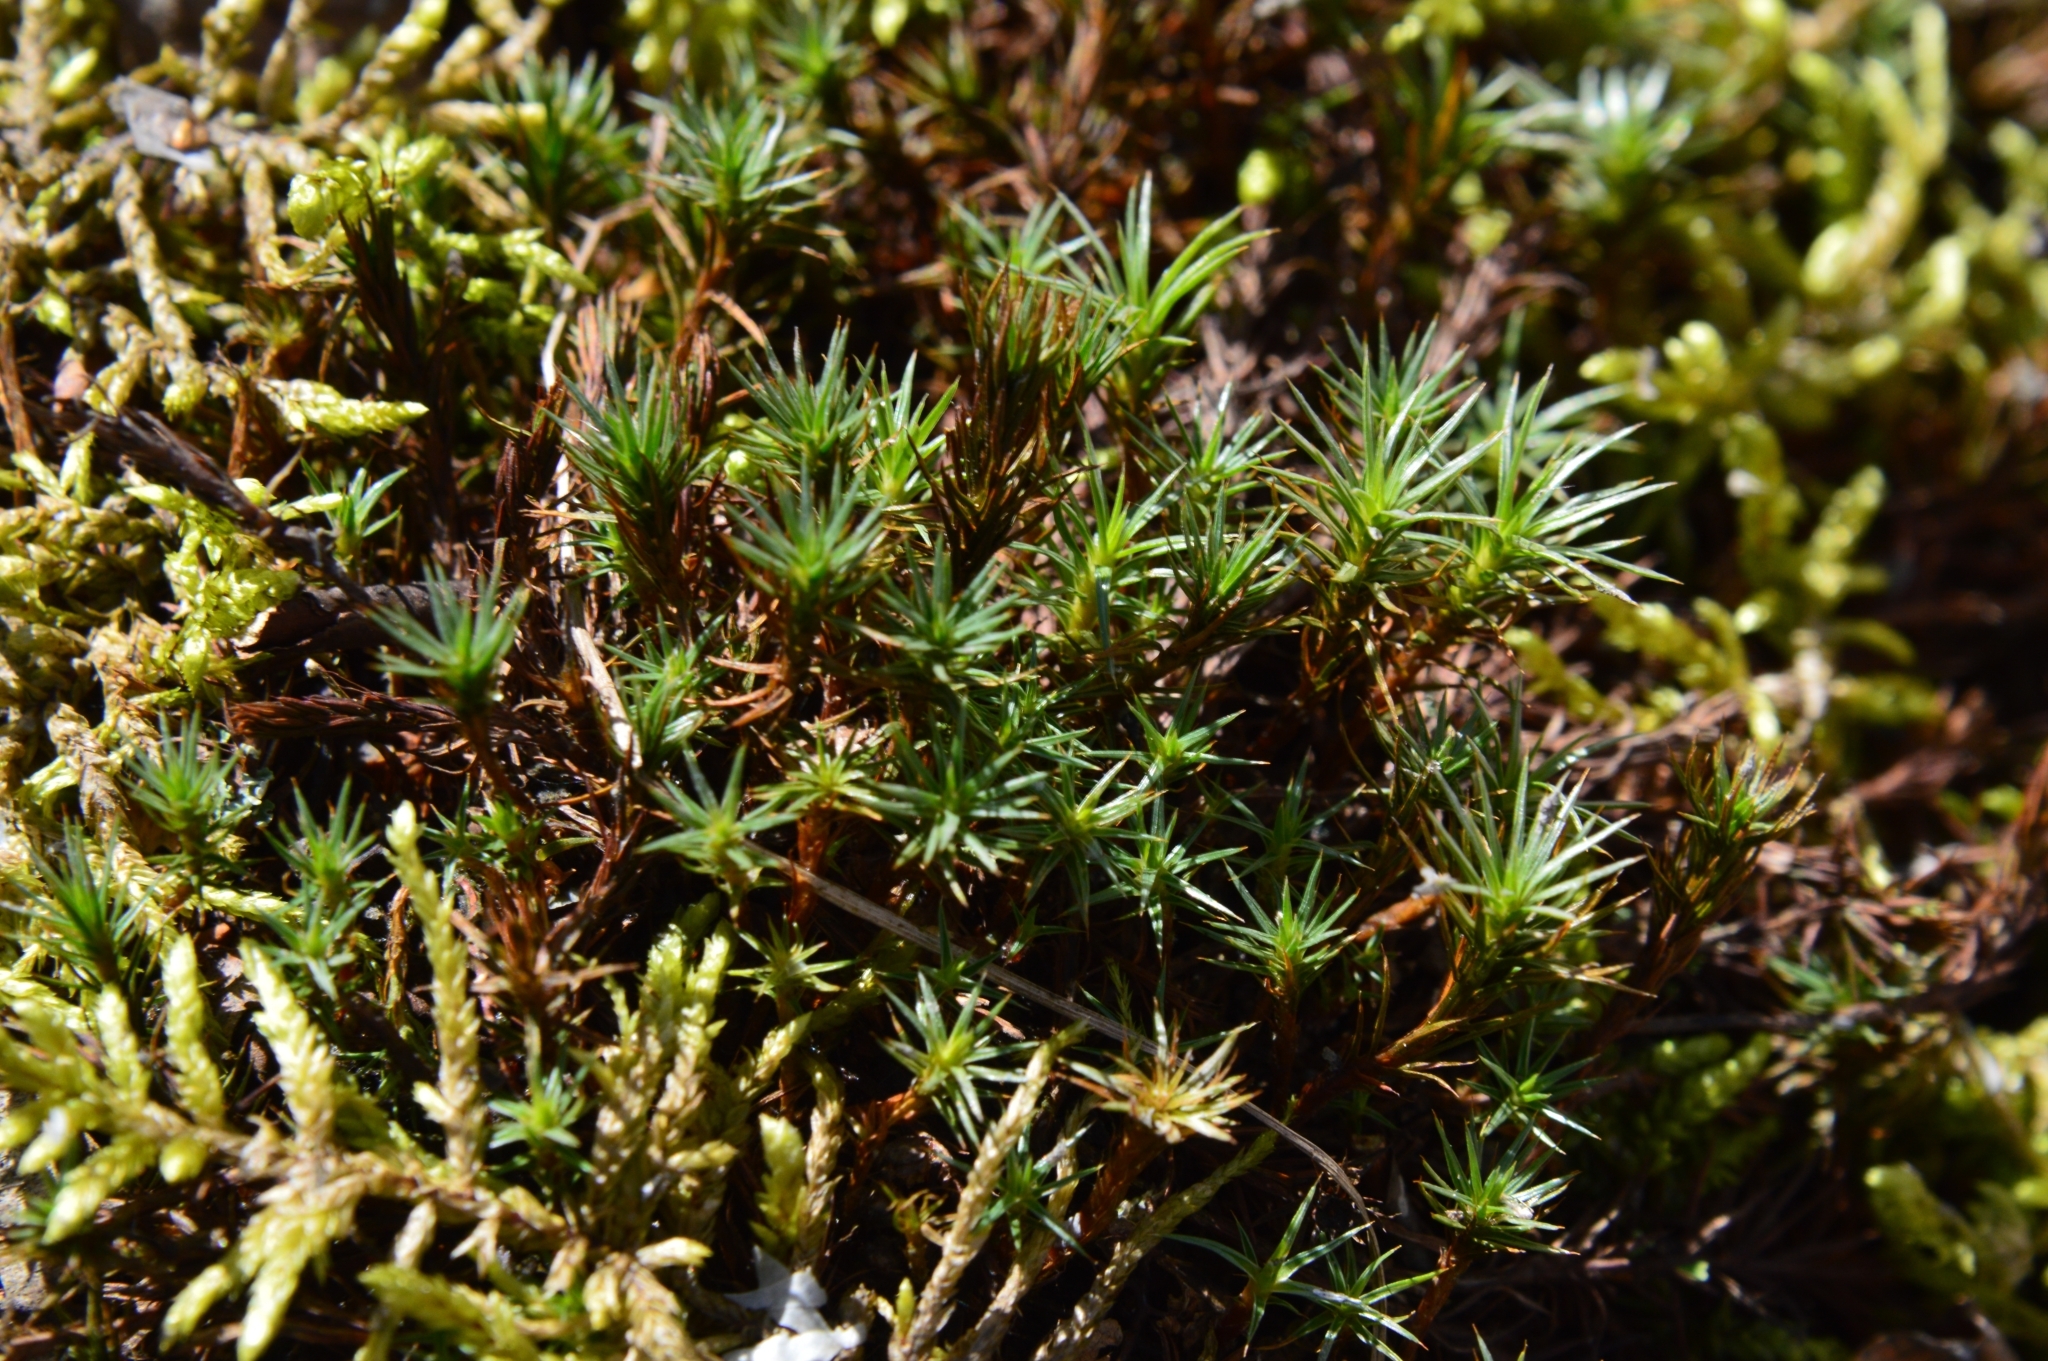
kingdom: Plantae
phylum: Bryophyta
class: Polytrichopsida
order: Polytrichales
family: Polytrichaceae
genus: Polytrichum
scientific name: Polytrichum juniperinum
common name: Juniper haircap moss
